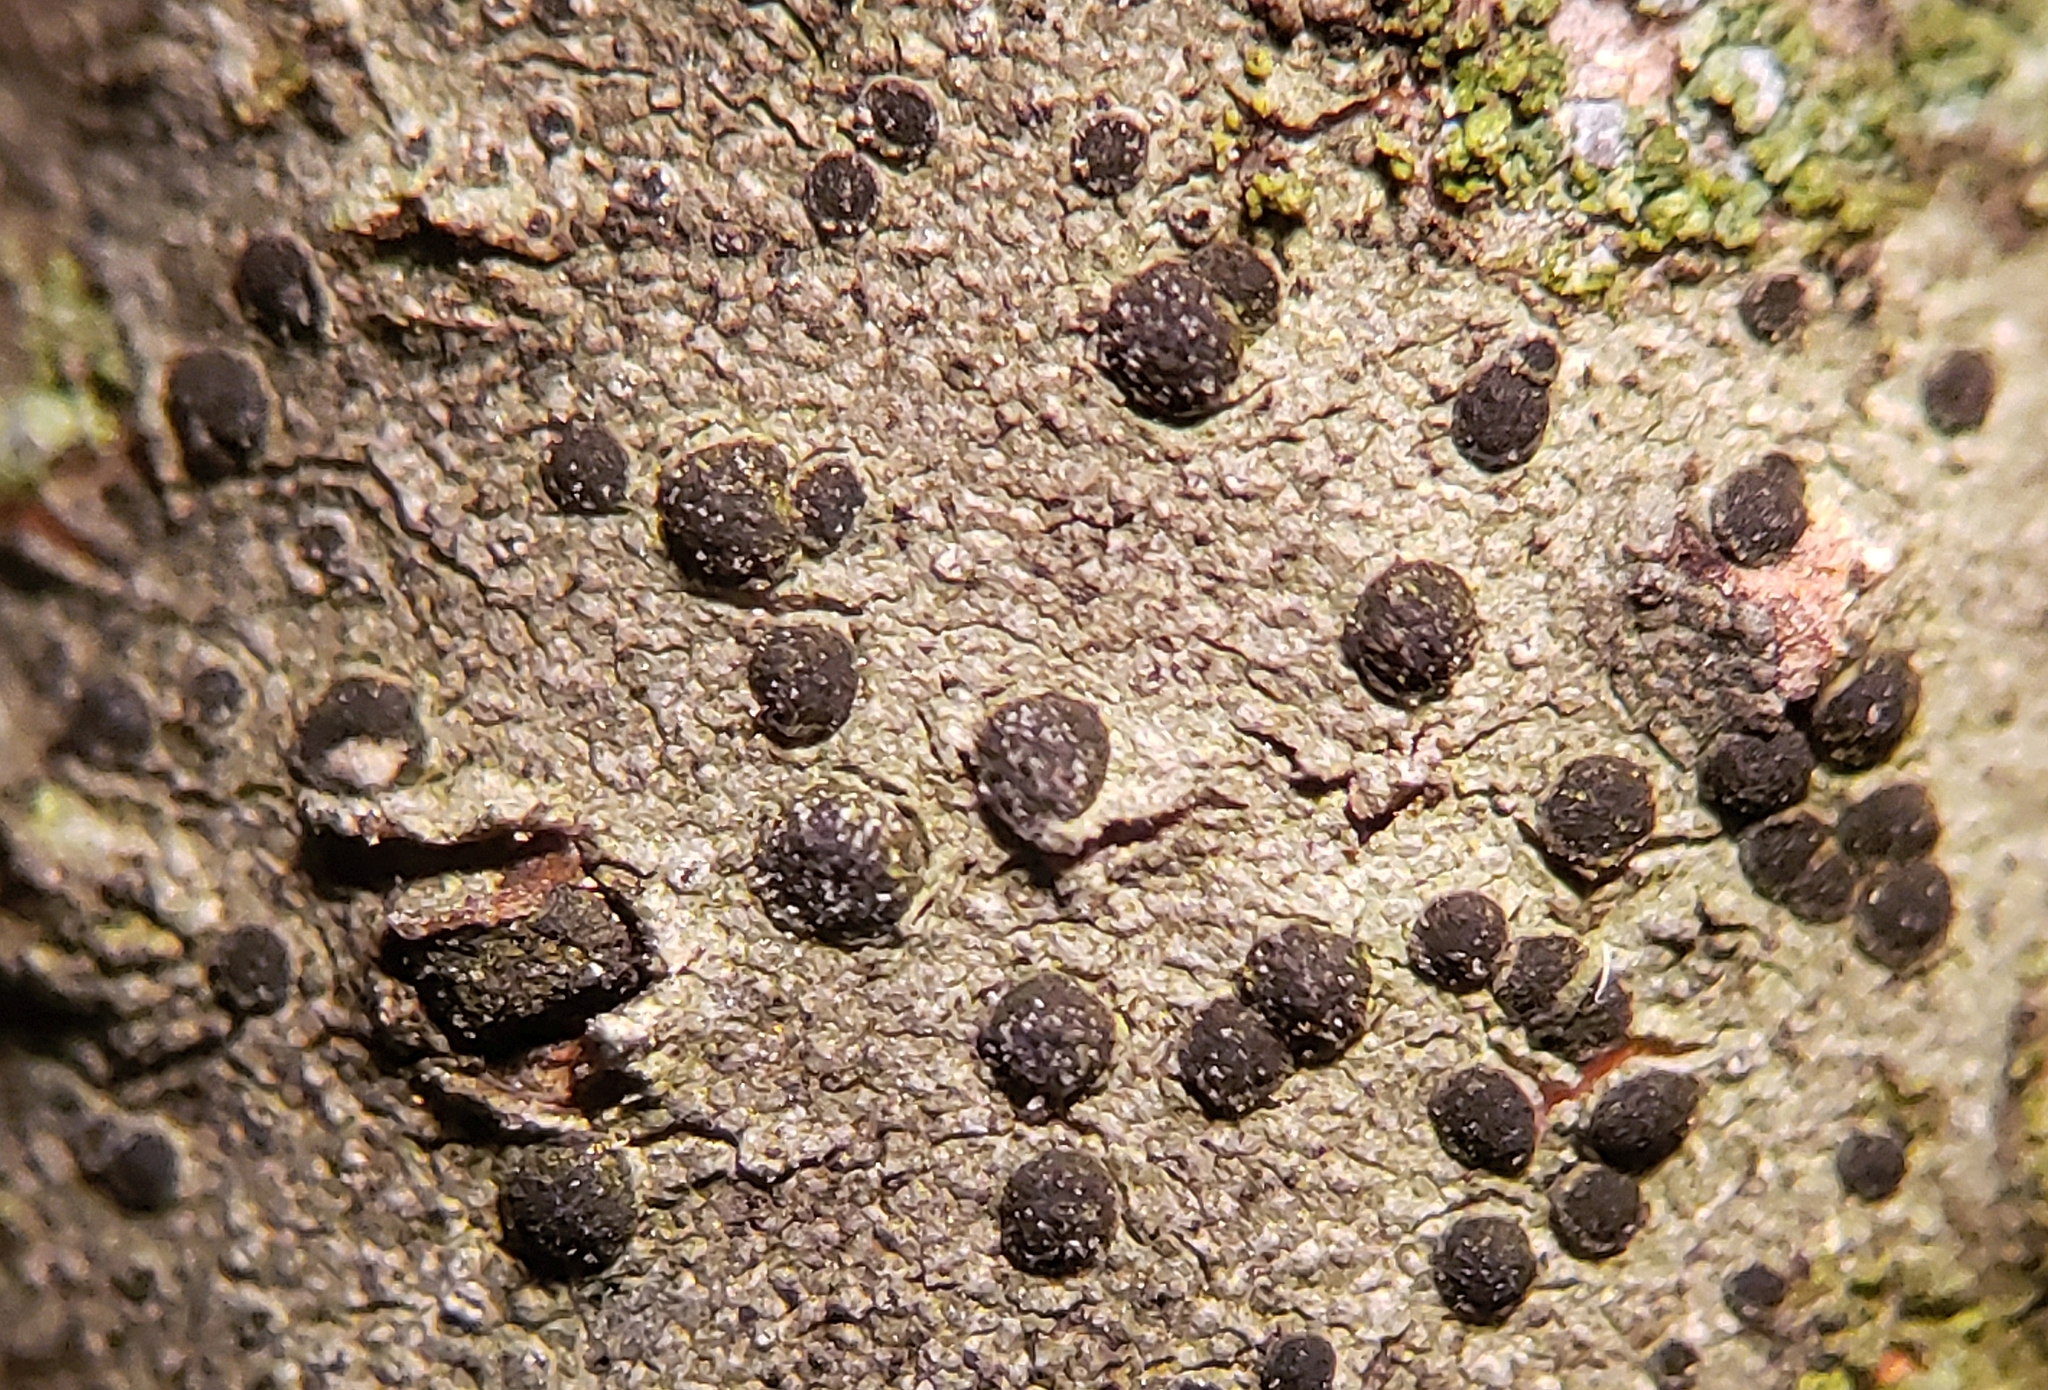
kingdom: Fungi
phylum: Ascomycota
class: Lecanoromycetes
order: Caliciales
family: Caliciaceae
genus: Buellia
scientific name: Buellia dakotensis
